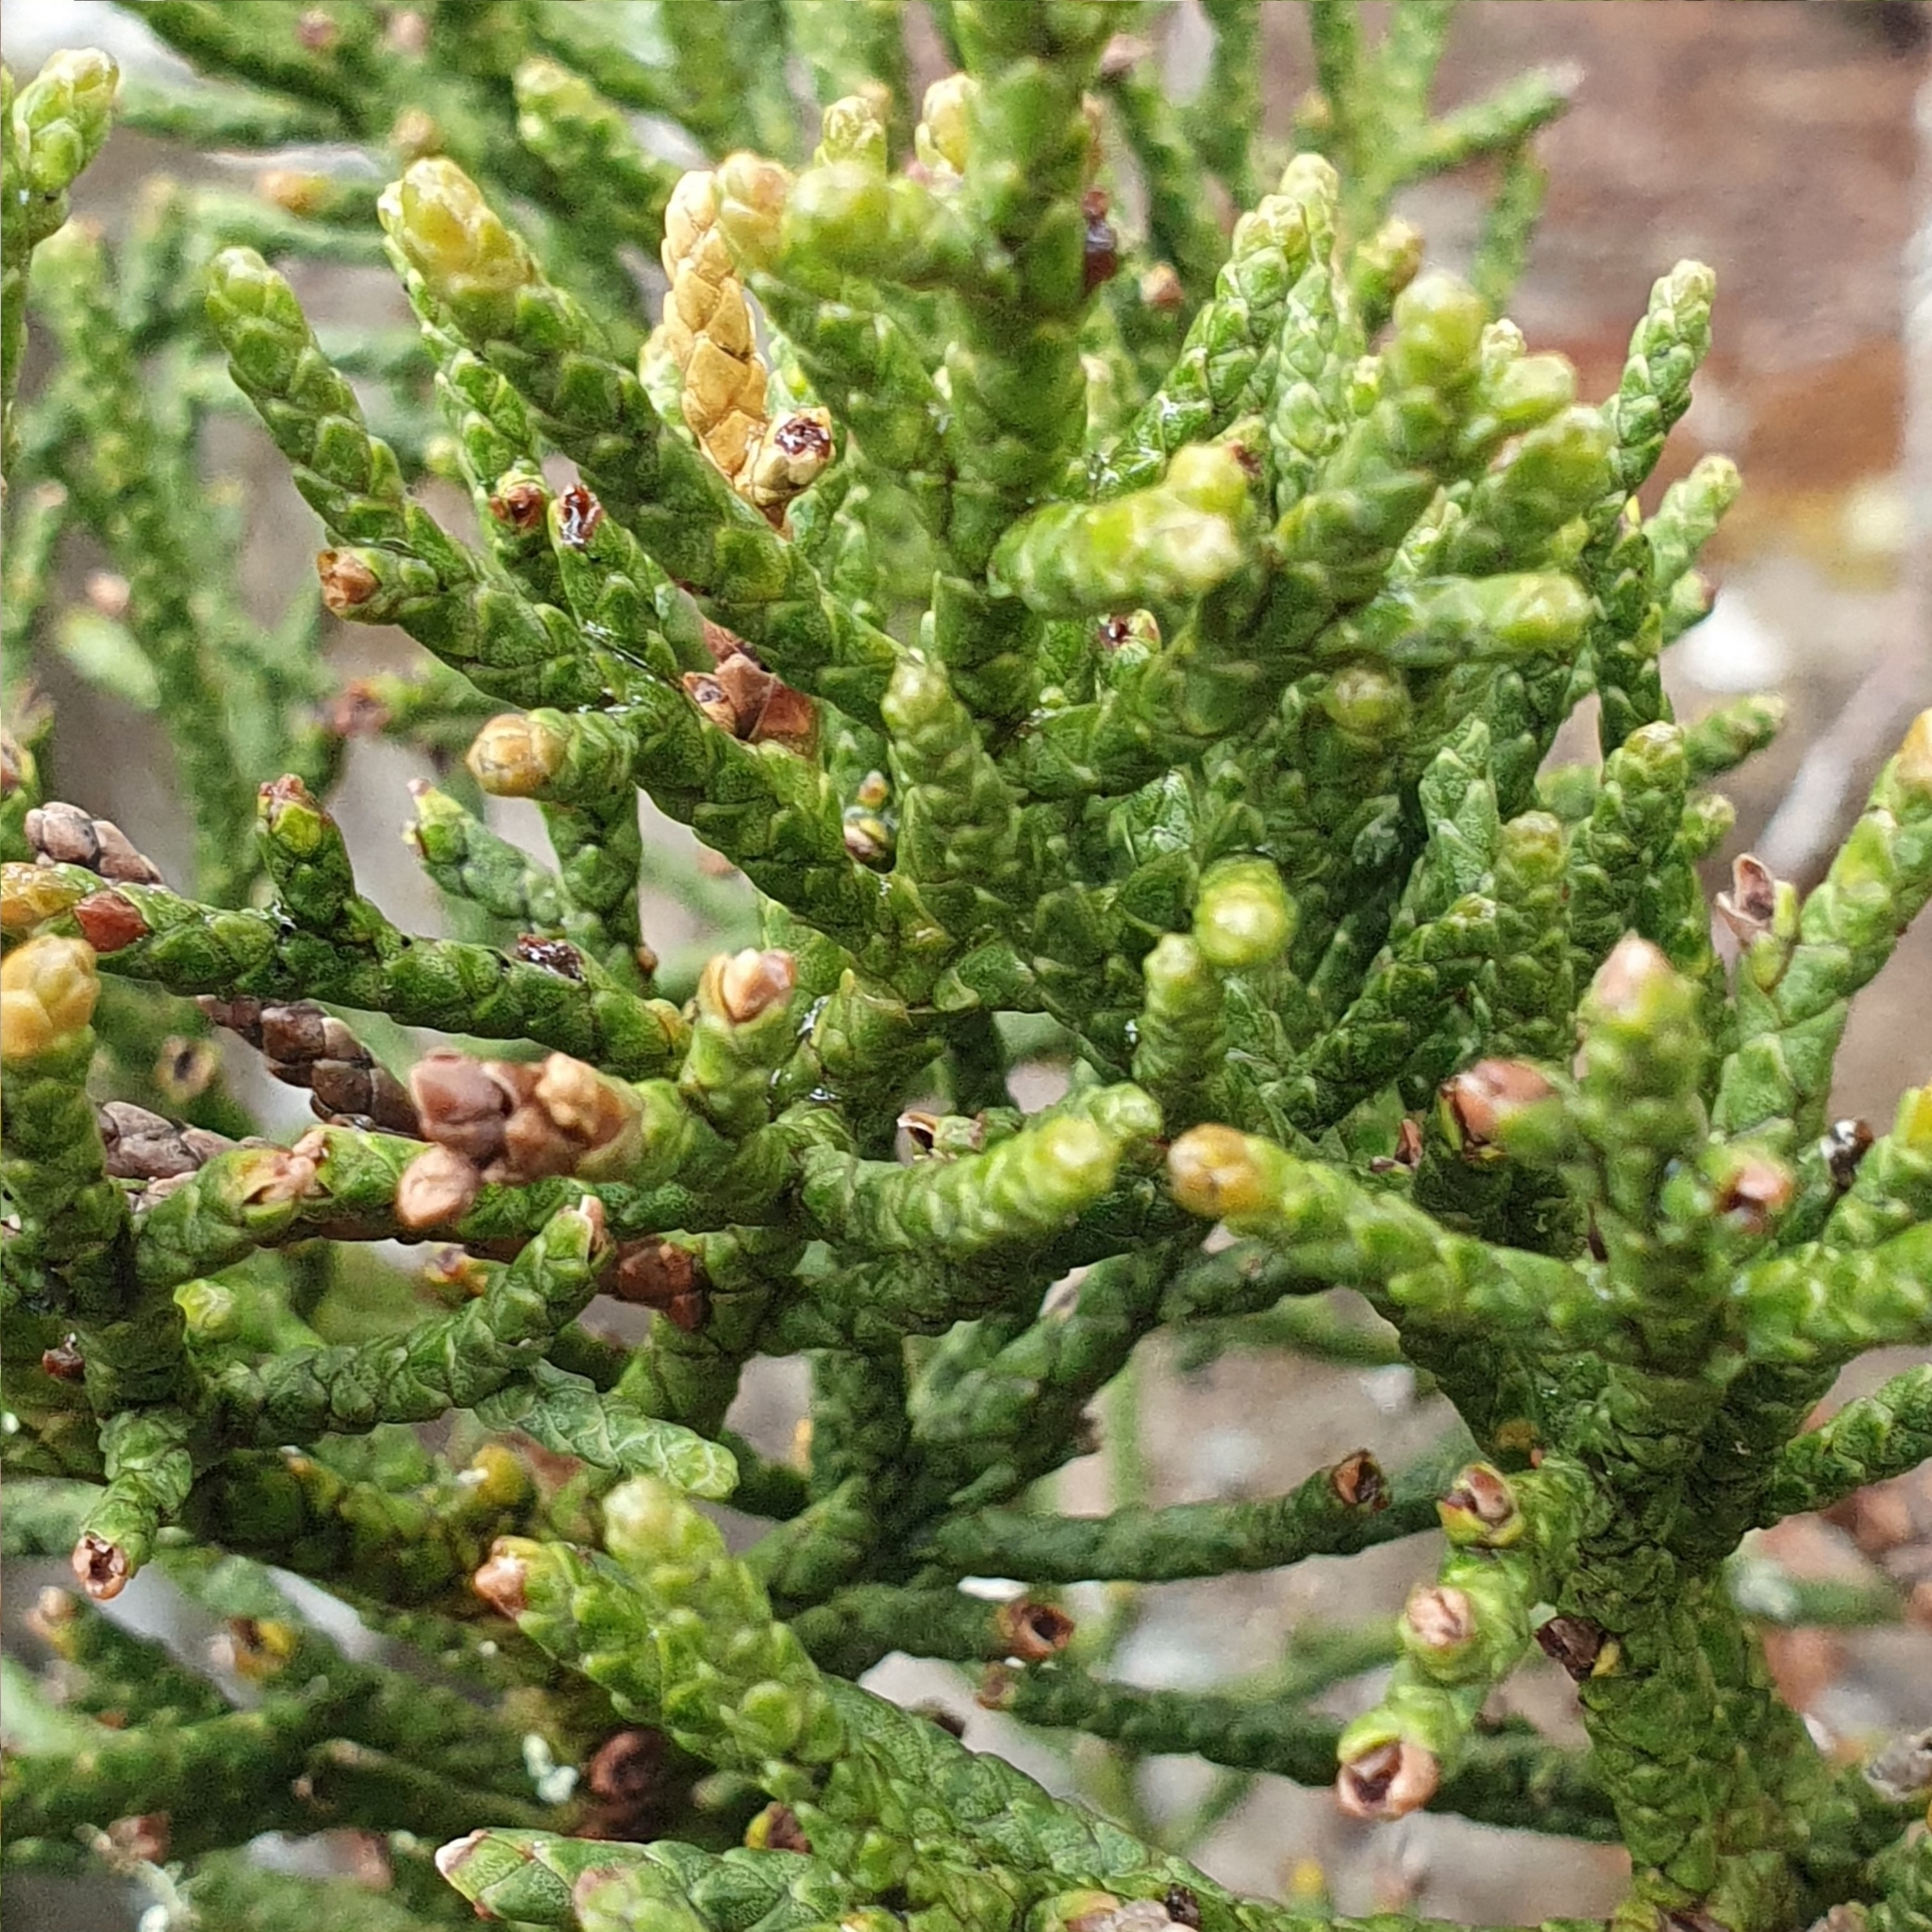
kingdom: Plantae
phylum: Tracheophyta
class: Pinopsida
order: Pinales
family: Cupressaceae
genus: Athrotaxis
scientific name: Athrotaxis cupressoides
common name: Tasmanian pencil pine
